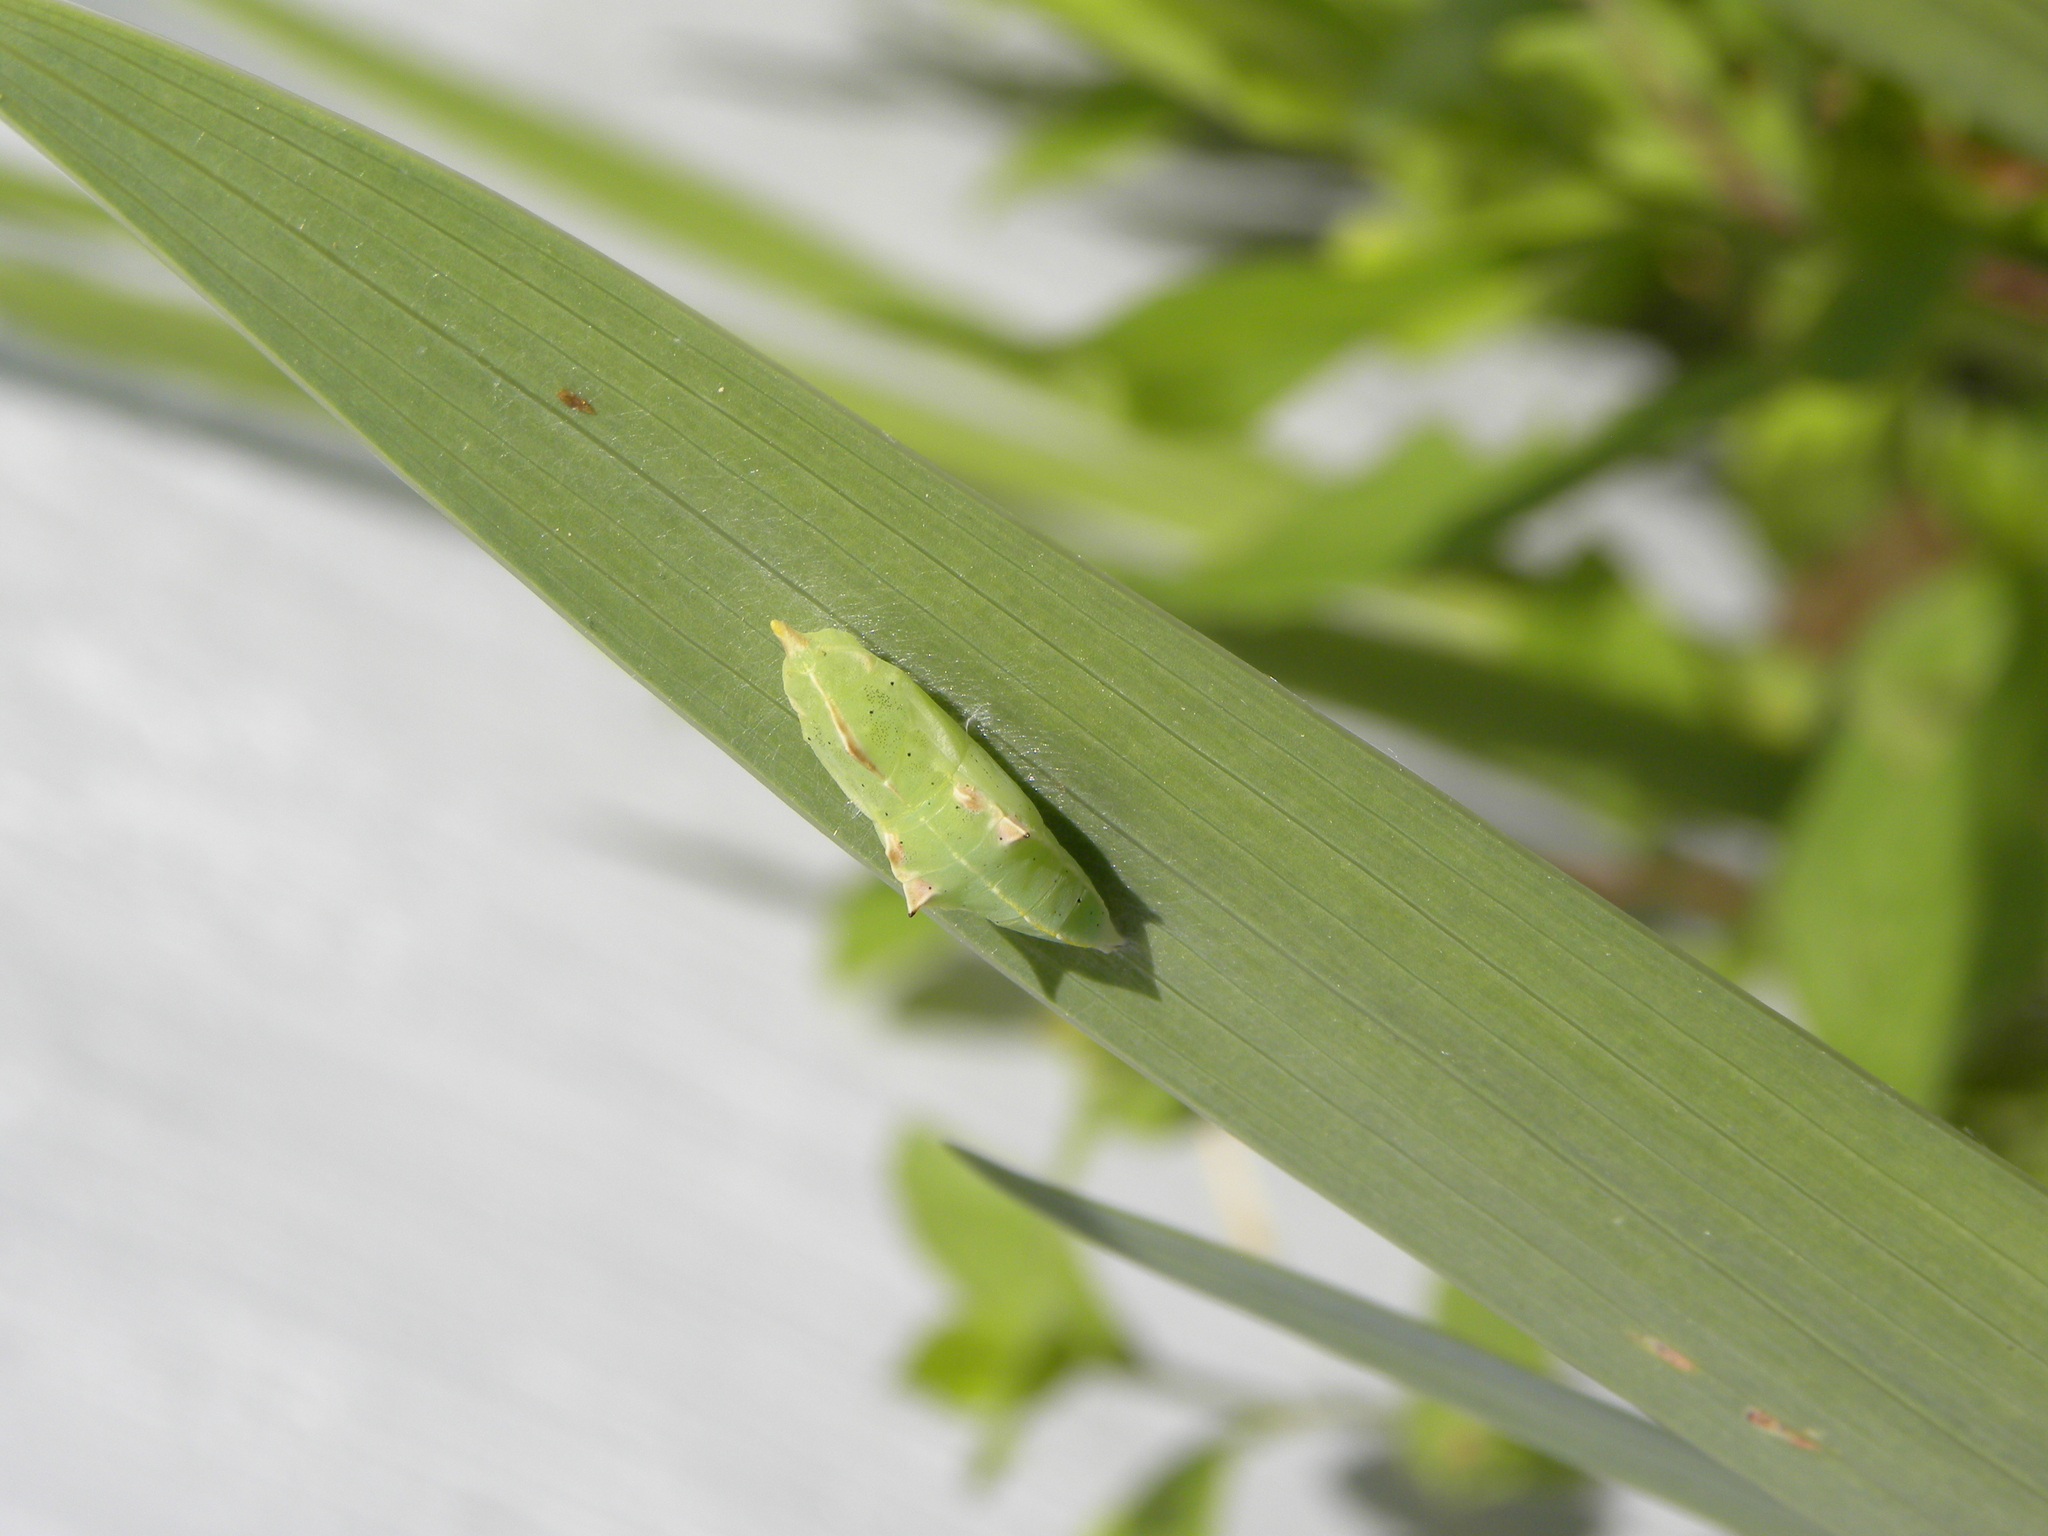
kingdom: Animalia
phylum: Arthropoda
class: Insecta
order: Lepidoptera
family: Pieridae
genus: Pieris
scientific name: Pieris rapae
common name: Small white
